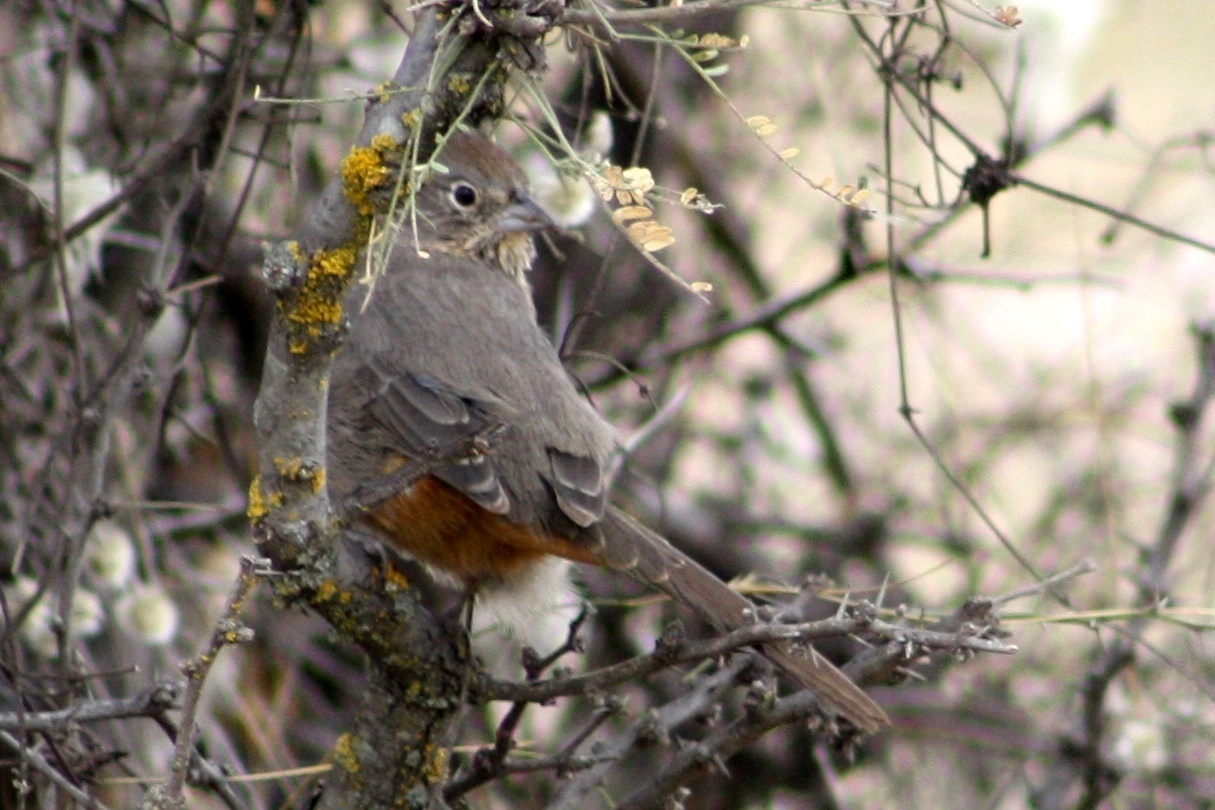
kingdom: Animalia
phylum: Chordata
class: Aves
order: Passeriformes
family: Passerellidae
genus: Melozone
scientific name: Melozone fusca
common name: Canyon towhee
